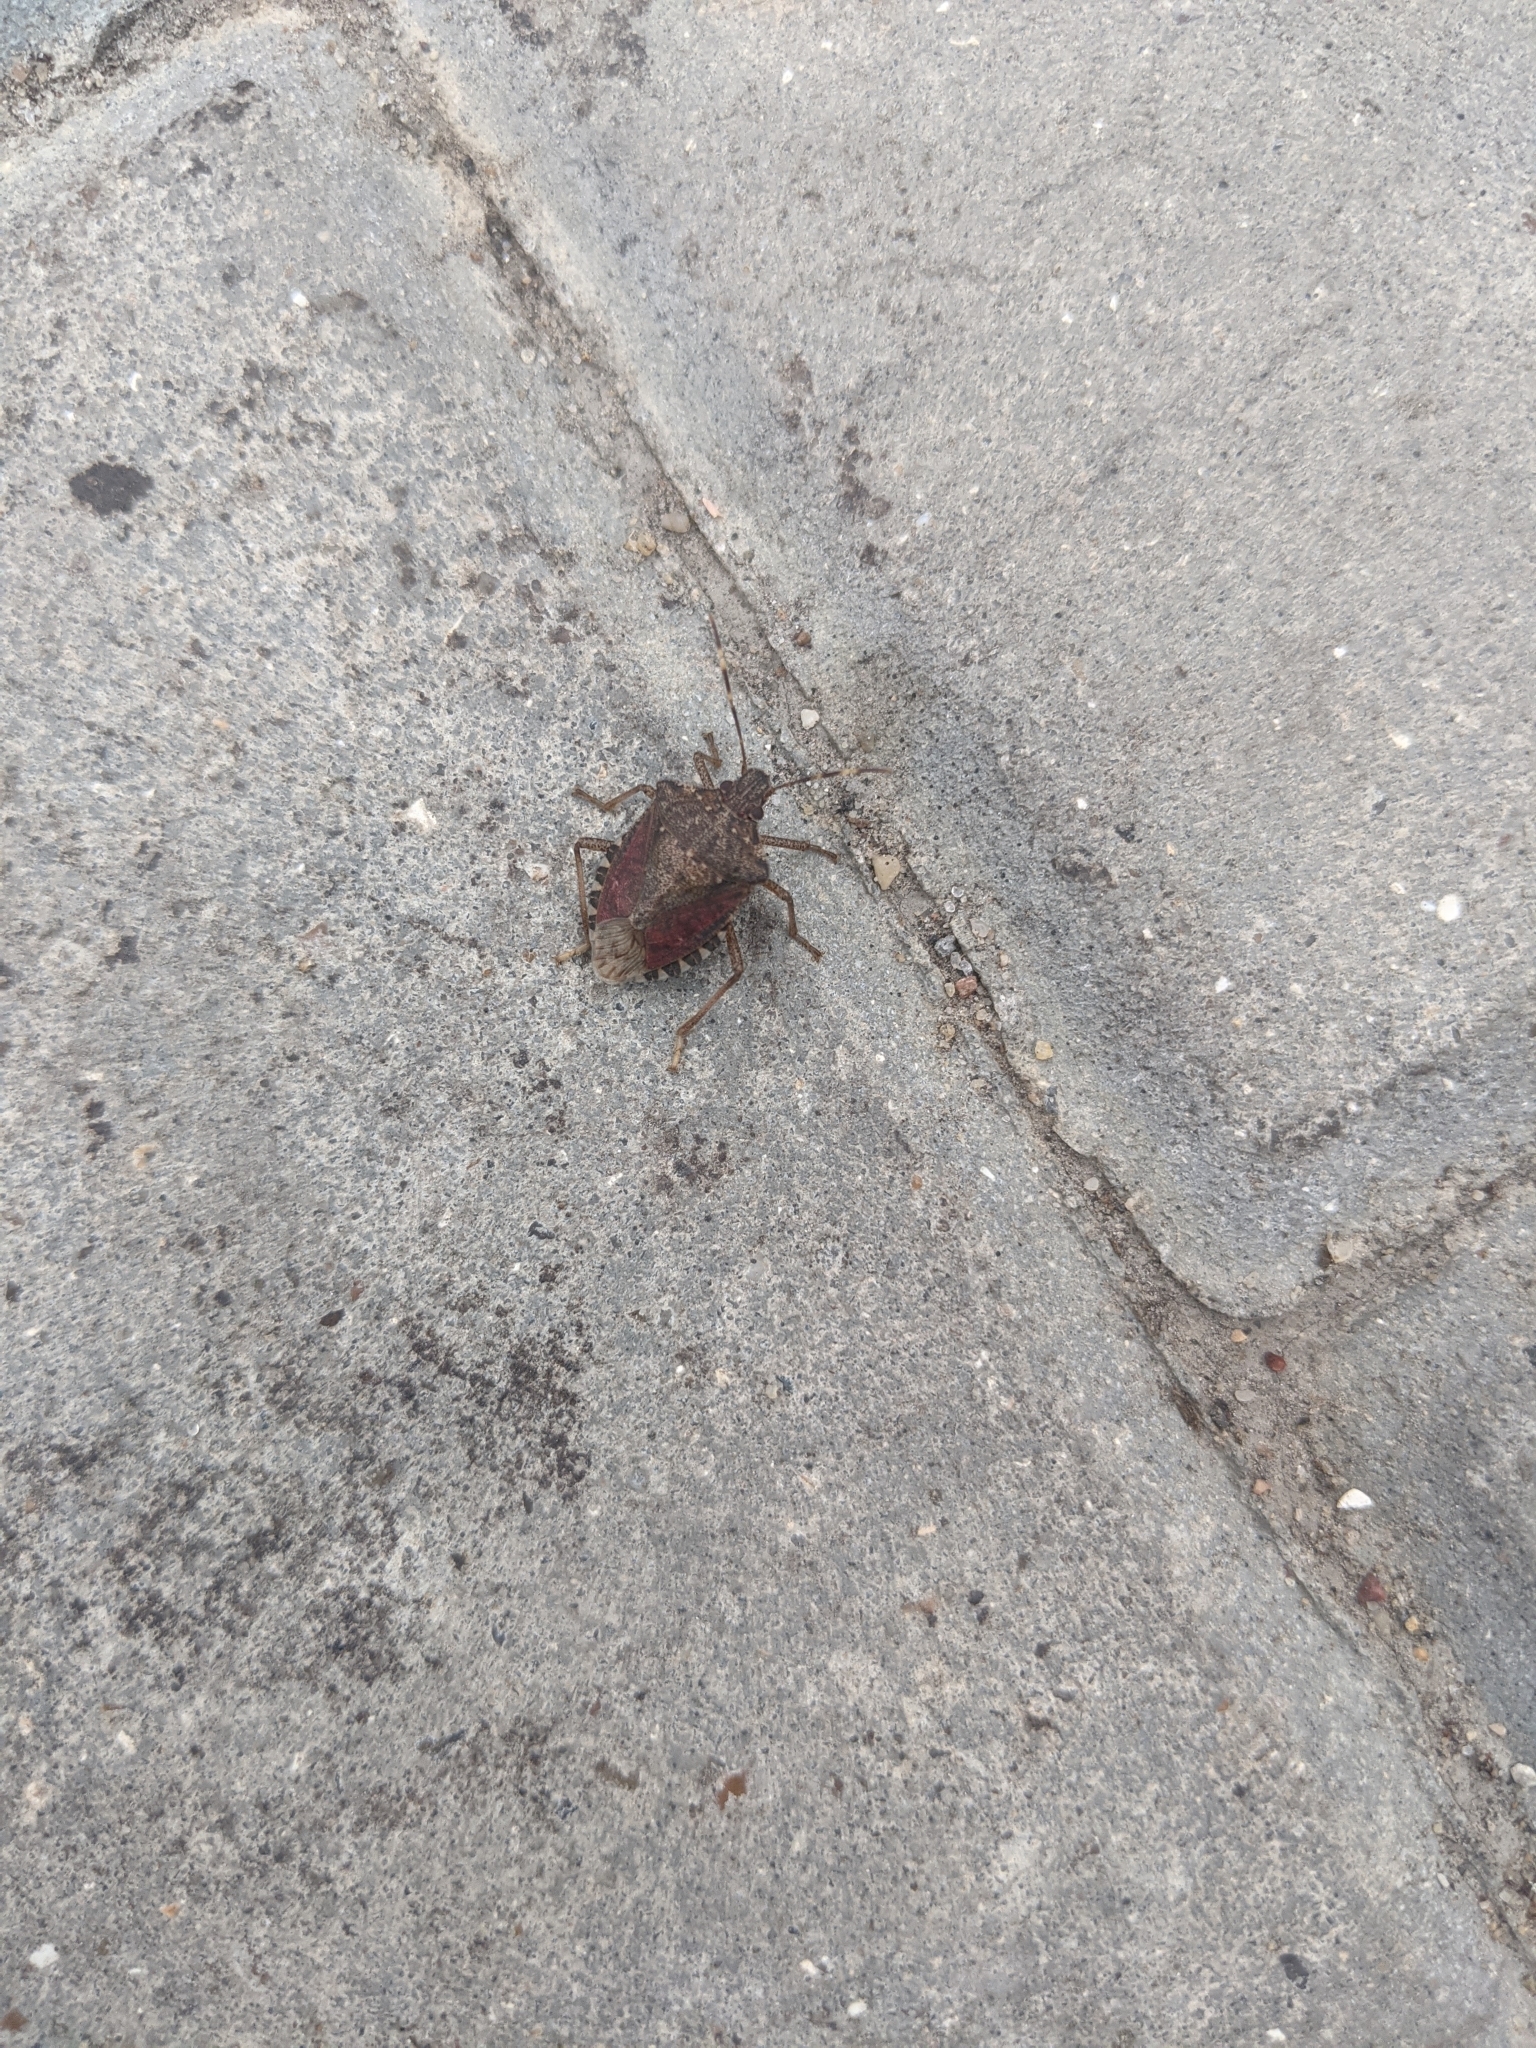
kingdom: Animalia
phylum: Arthropoda
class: Insecta
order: Hemiptera
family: Pentatomidae
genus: Halyomorpha
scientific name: Halyomorpha halys
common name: Brown marmorated stink bug
